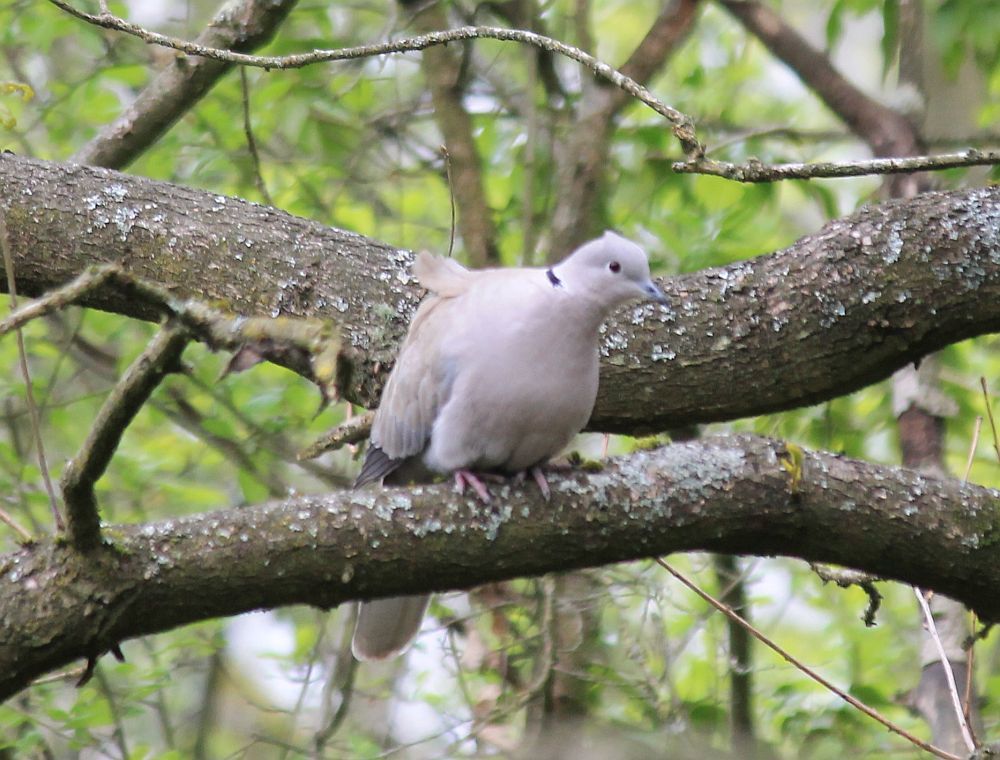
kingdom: Animalia
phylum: Chordata
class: Aves
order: Columbiformes
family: Columbidae
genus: Streptopelia
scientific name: Streptopelia decaocto
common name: Eurasian collared dove
